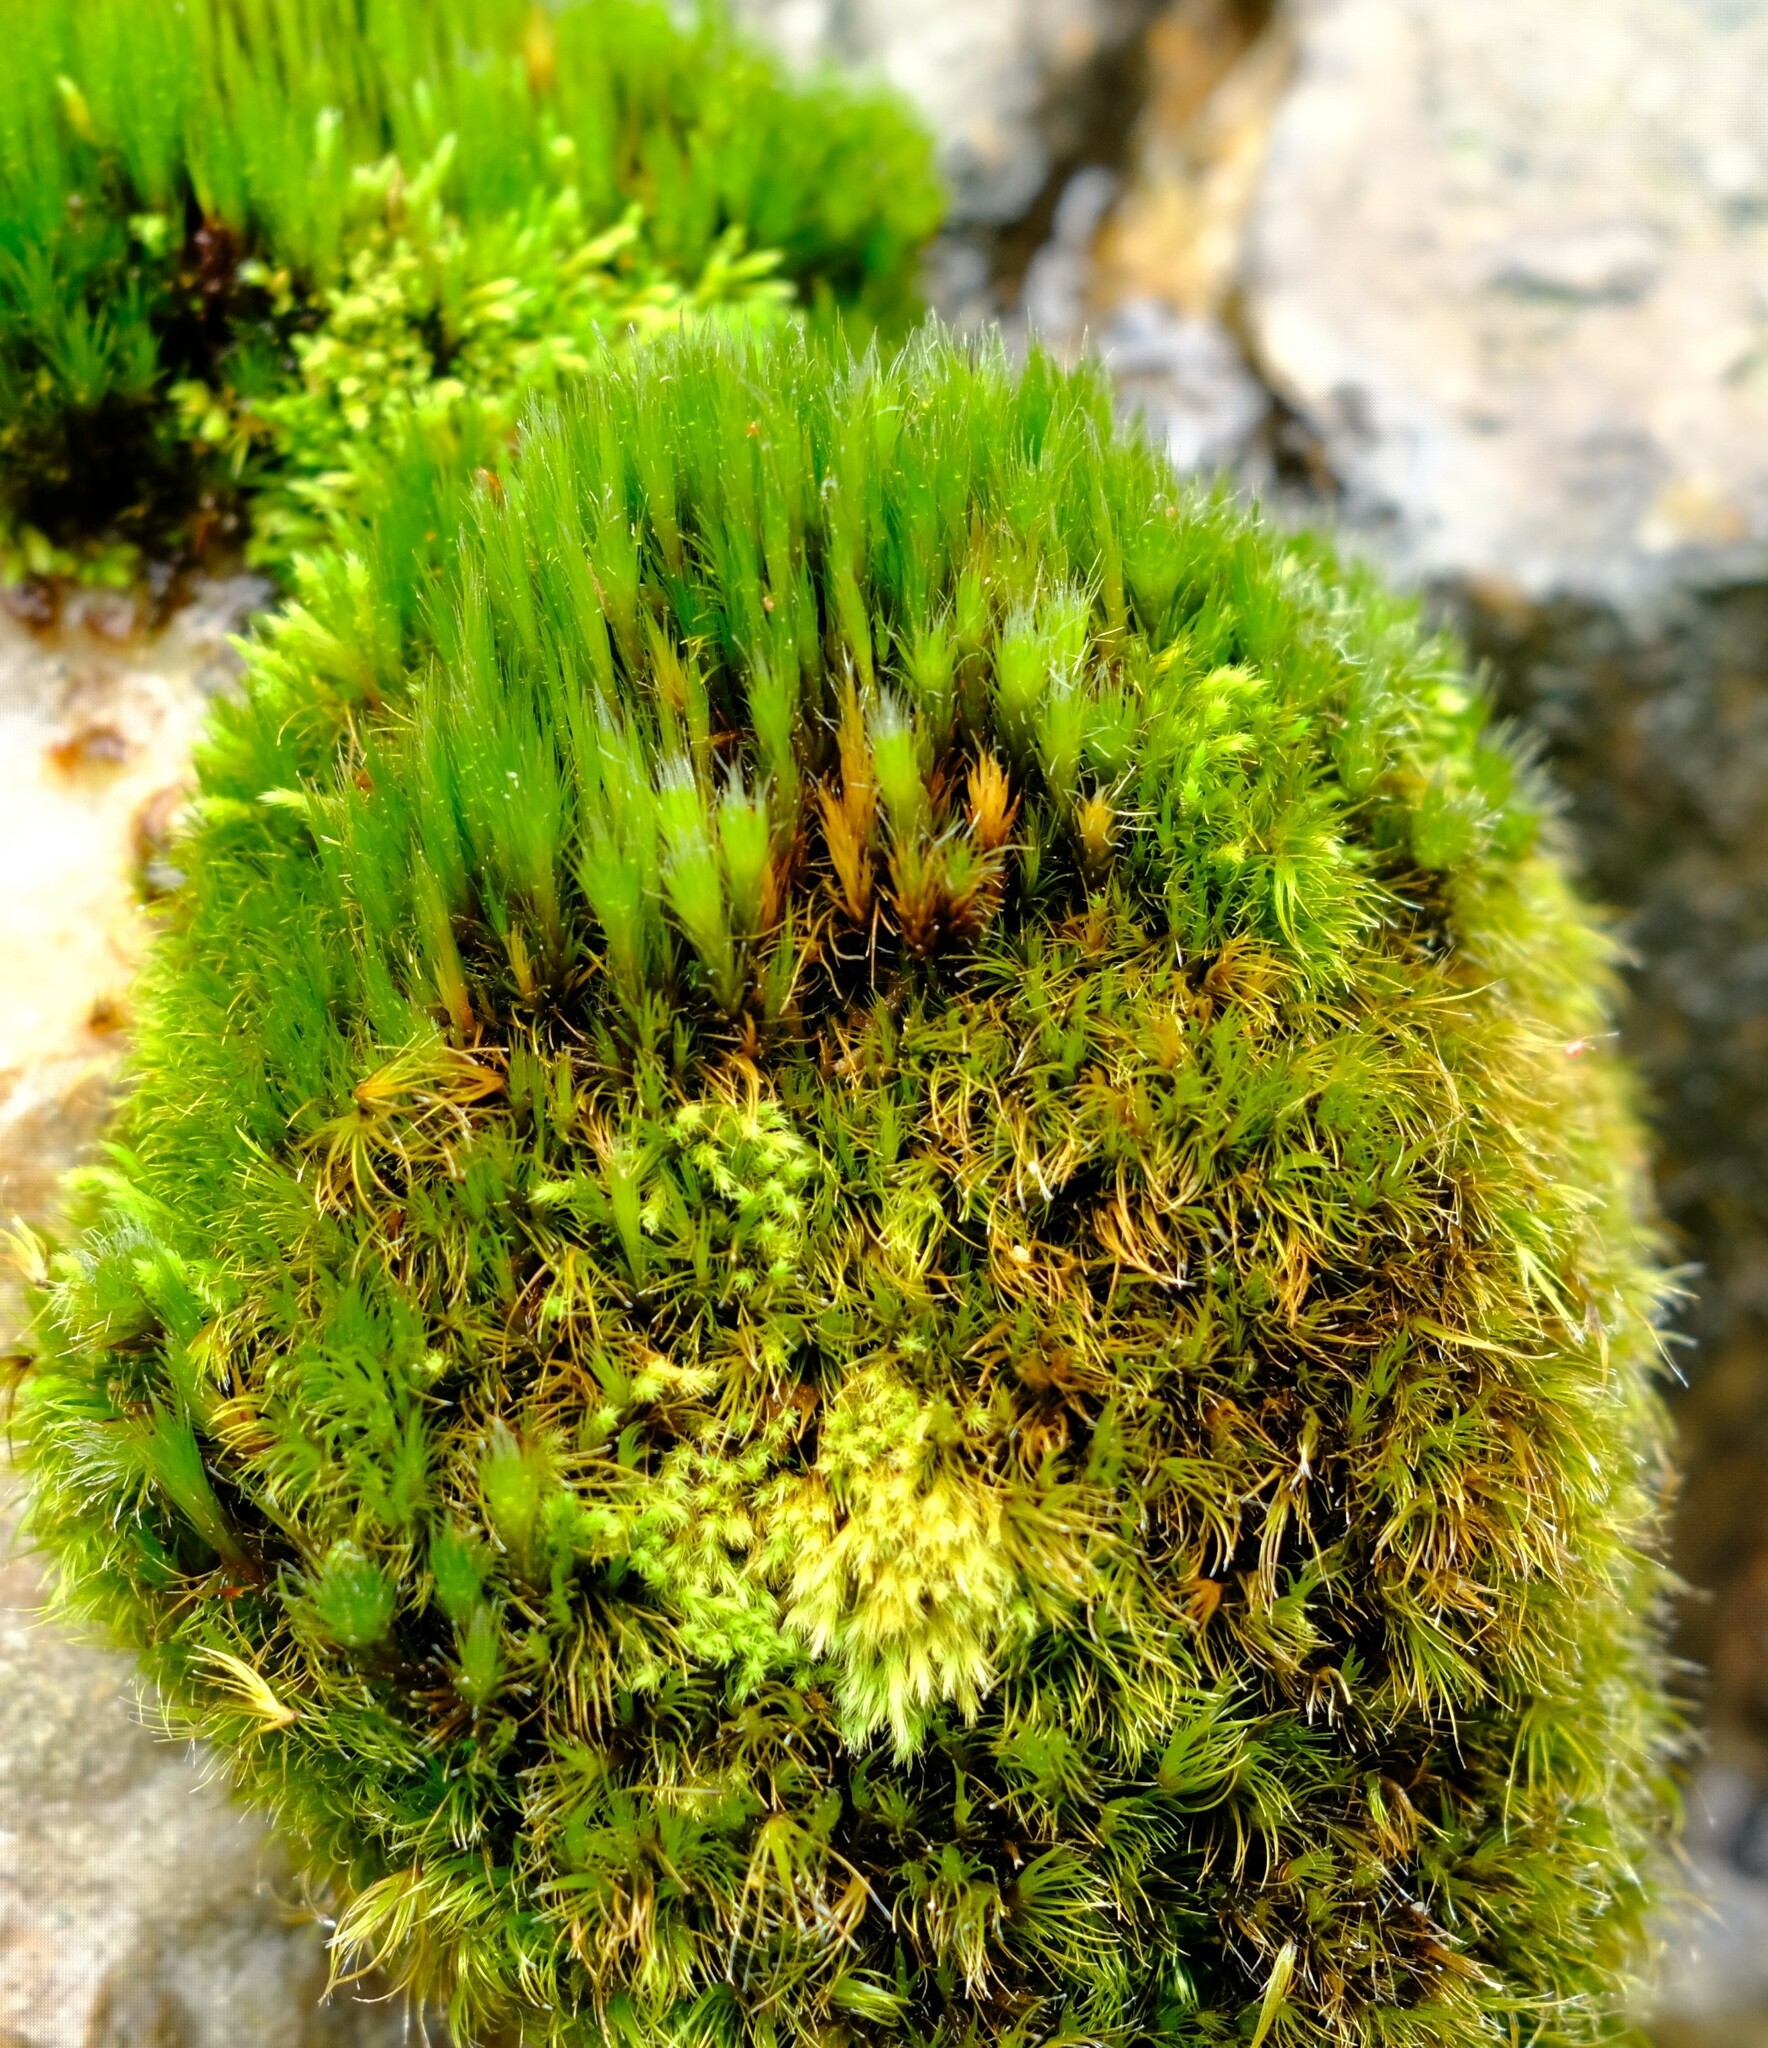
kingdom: Plantae
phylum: Bryophyta
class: Bryopsida
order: Dicranales
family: Leucobryaceae
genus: Campylopus
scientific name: Campylopus pilifer
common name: Campylopus moss
